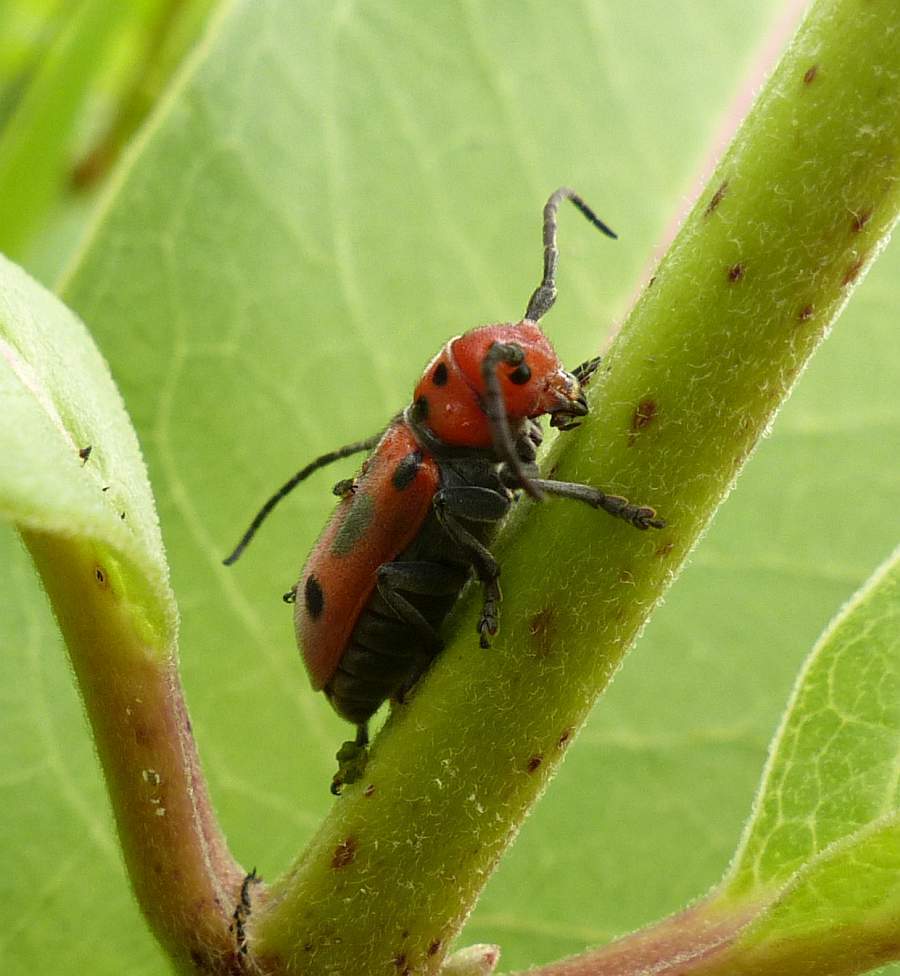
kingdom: Animalia
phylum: Arthropoda
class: Insecta
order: Coleoptera
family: Cerambycidae
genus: Tetraopes
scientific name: Tetraopes tetrophthalmus
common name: Red milkweed beetle
